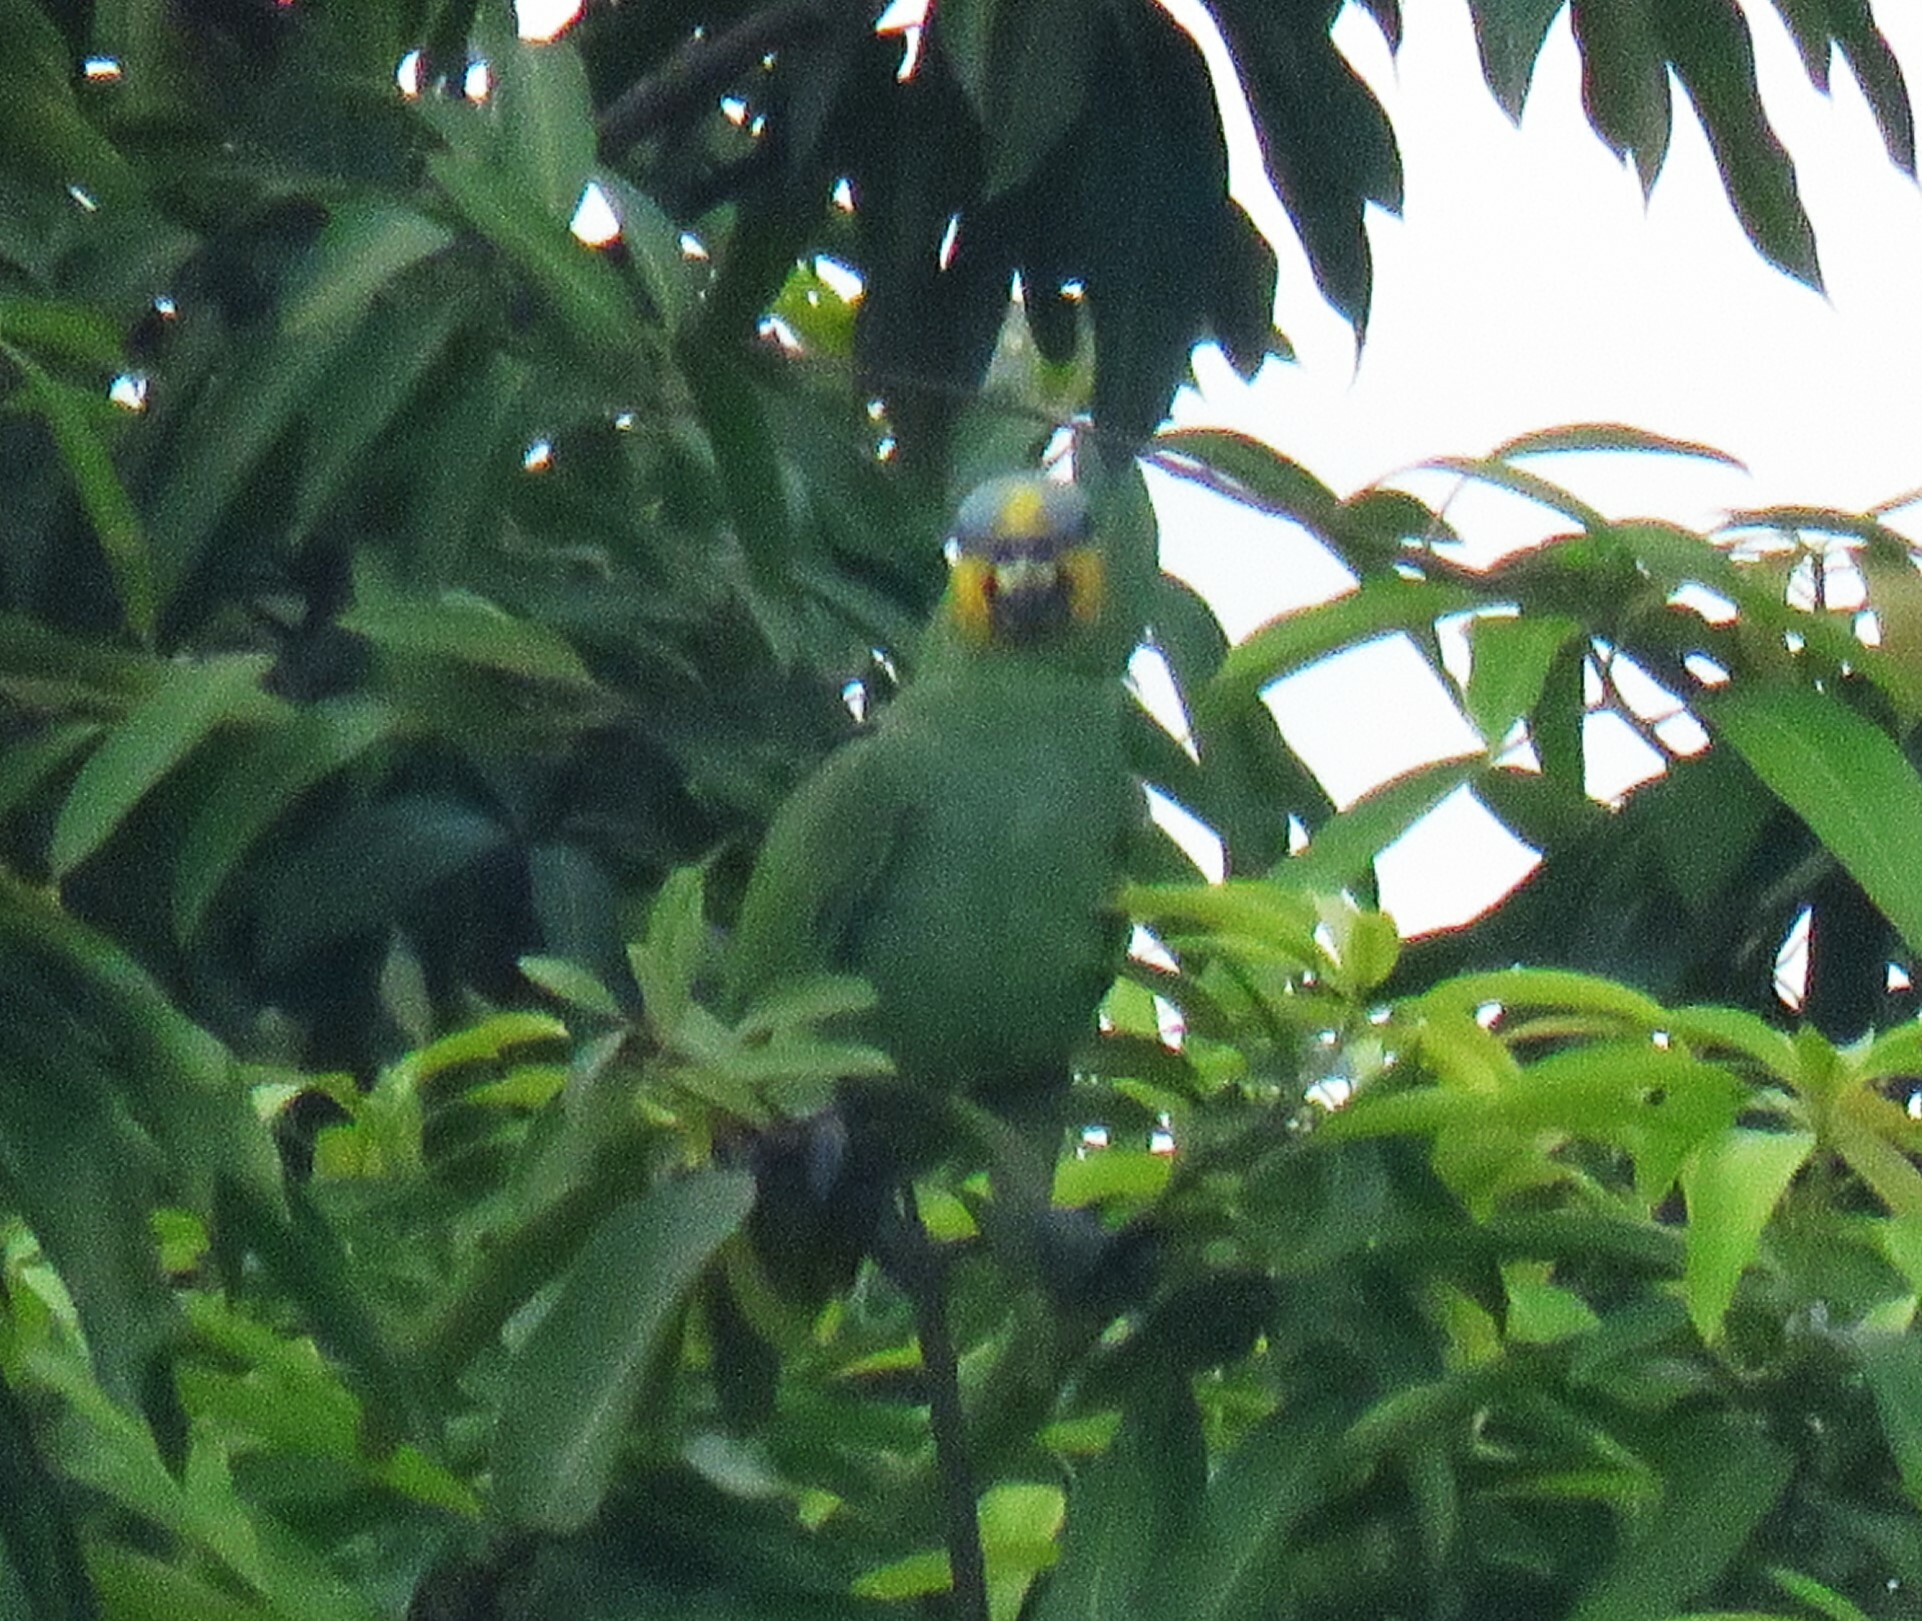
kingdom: Animalia
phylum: Chordata
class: Aves
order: Psittaciformes
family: Psittacidae
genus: Amazona
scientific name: Amazona amazonica
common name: Orange-winged amazon
